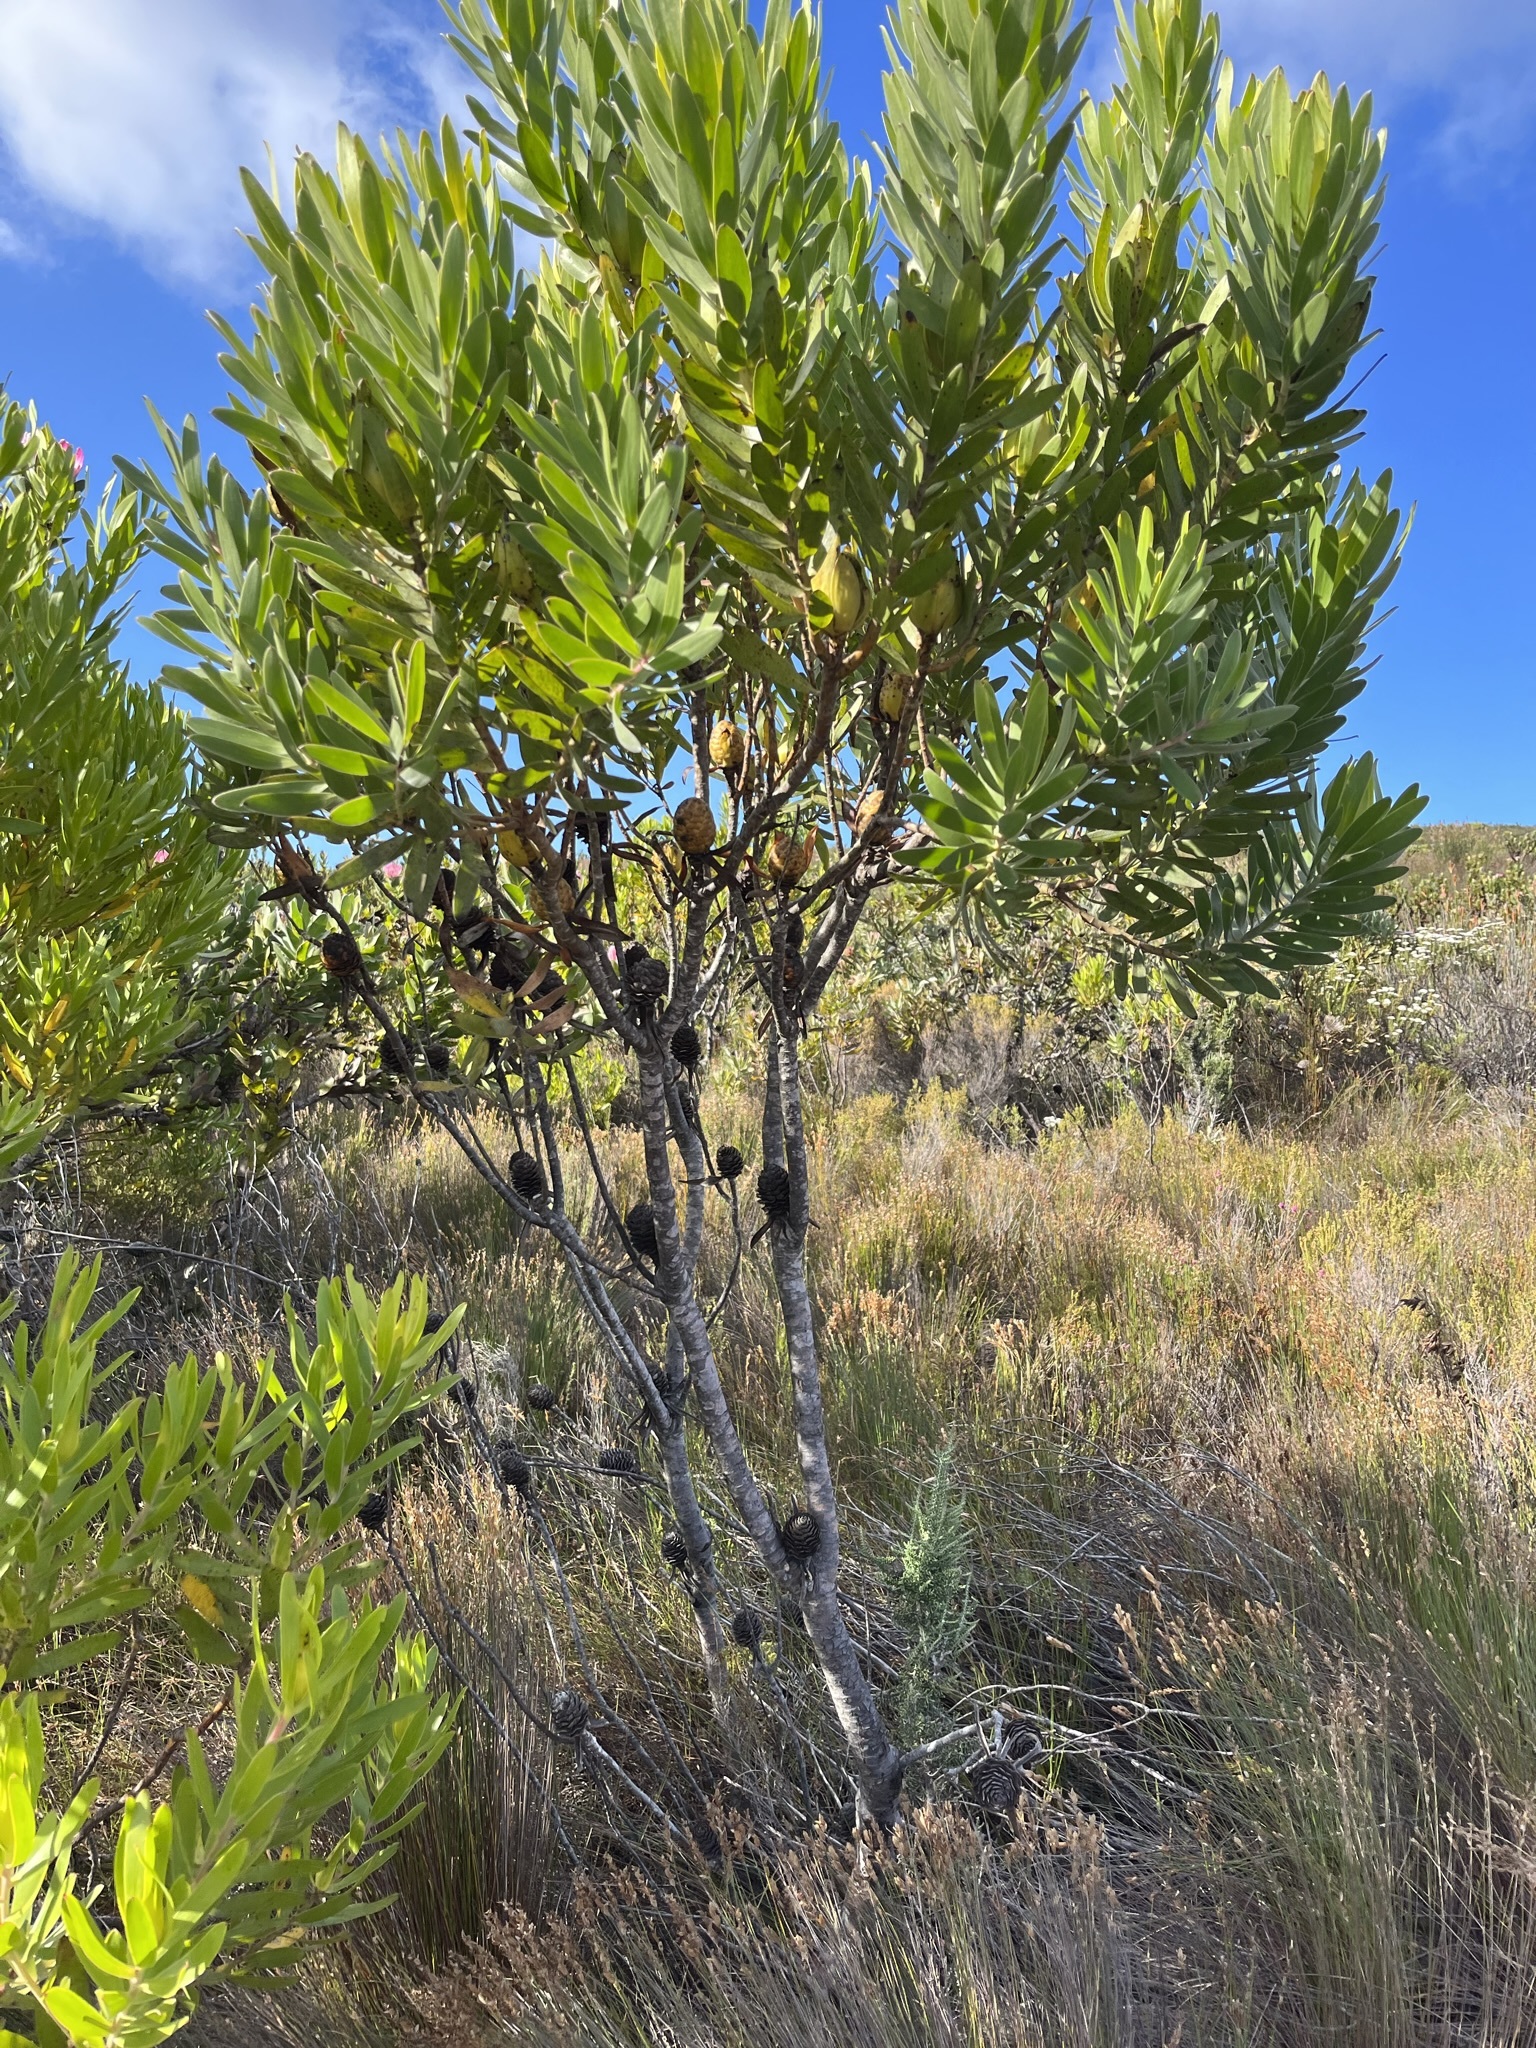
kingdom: Plantae
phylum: Tracheophyta
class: Magnoliopsida
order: Proteales
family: Proteaceae
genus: Leucadendron
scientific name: Leucadendron laureolum
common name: Golden sunshinebush
